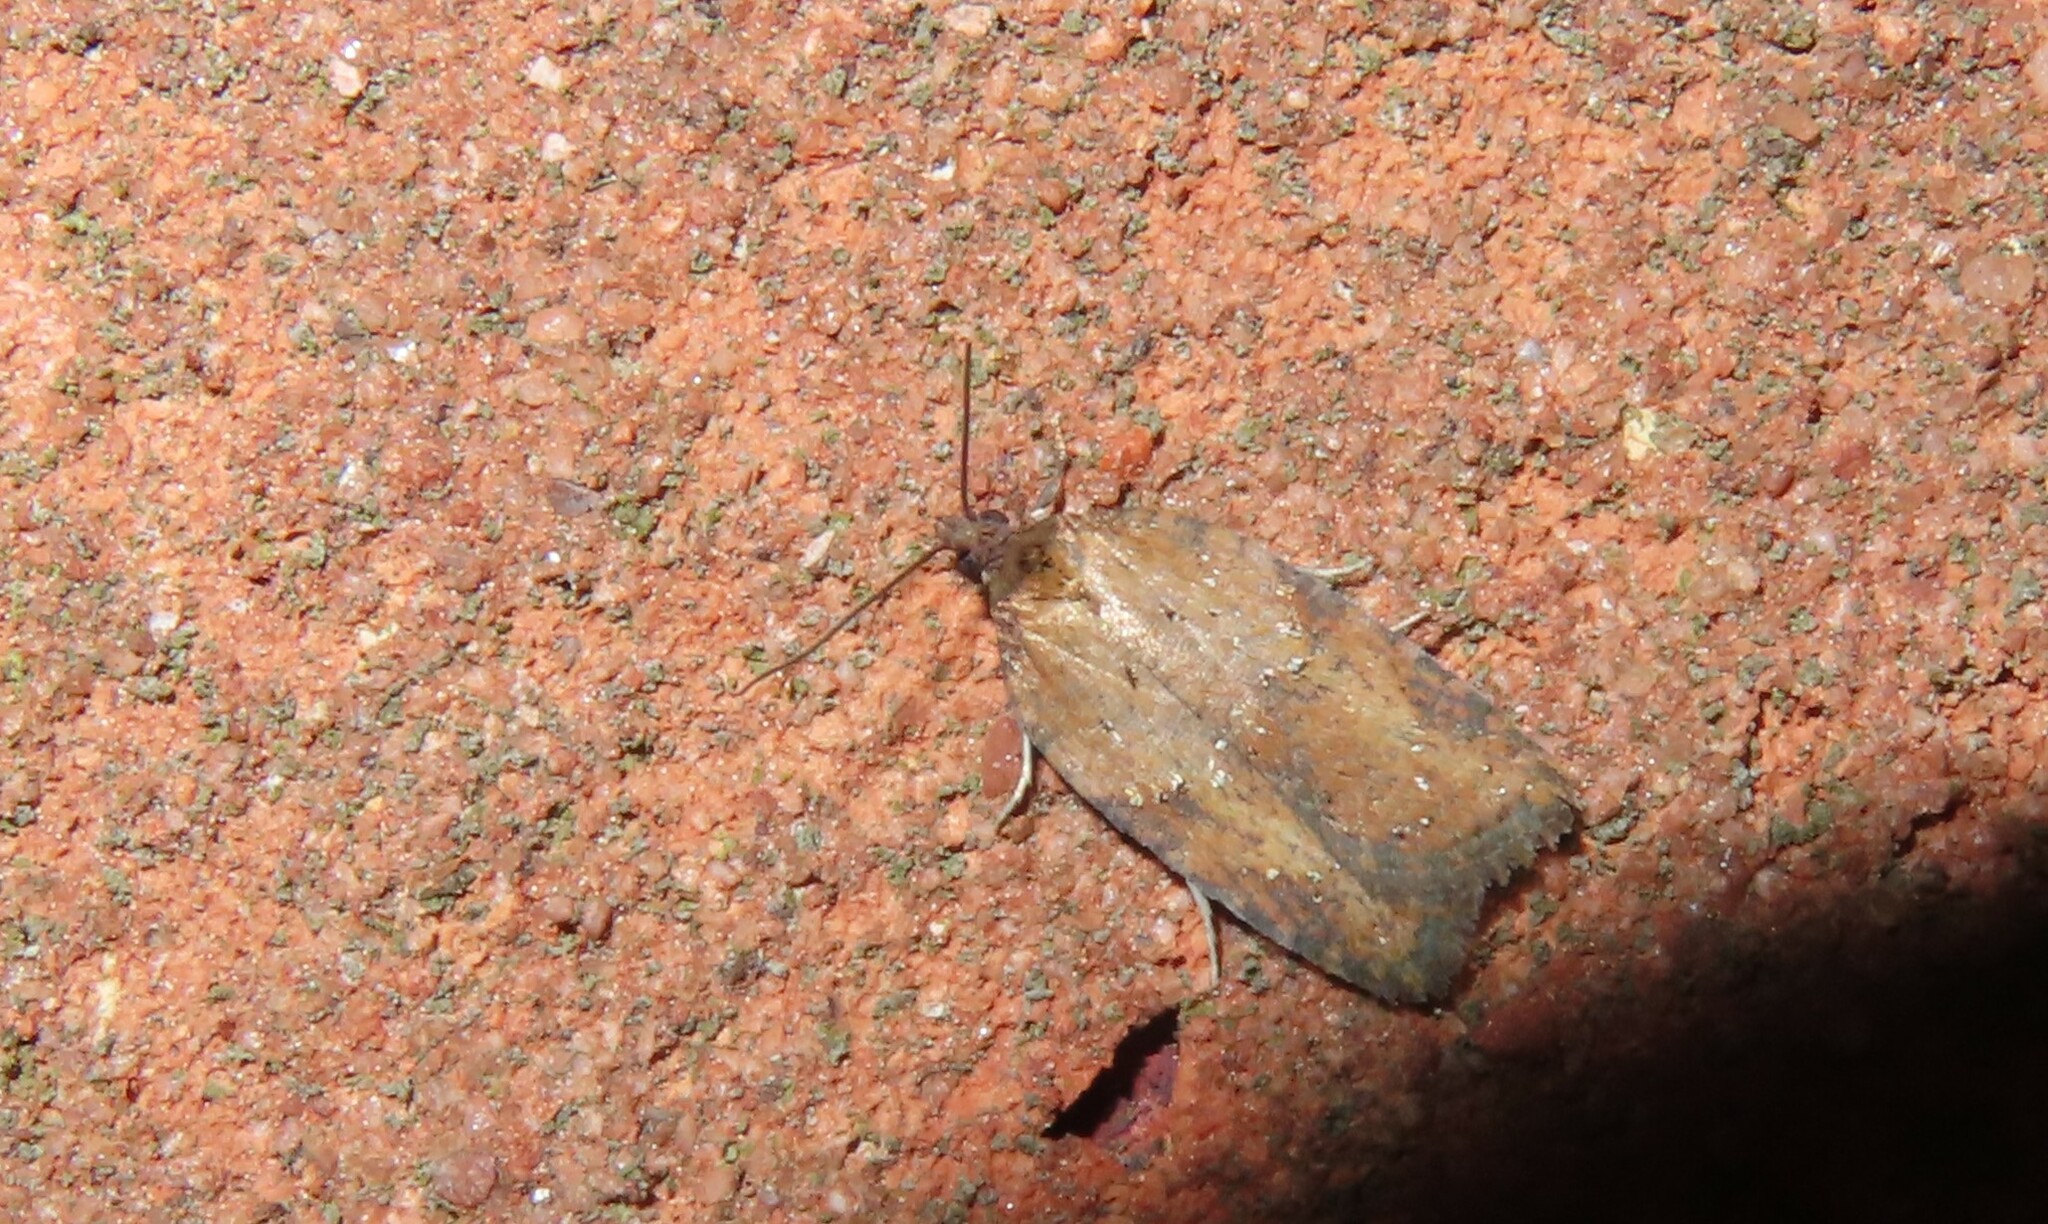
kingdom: Animalia
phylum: Arthropoda
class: Insecta
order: Lepidoptera
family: Tortricidae
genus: Acleris
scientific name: Acleris schalleriana
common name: Viburnum button
